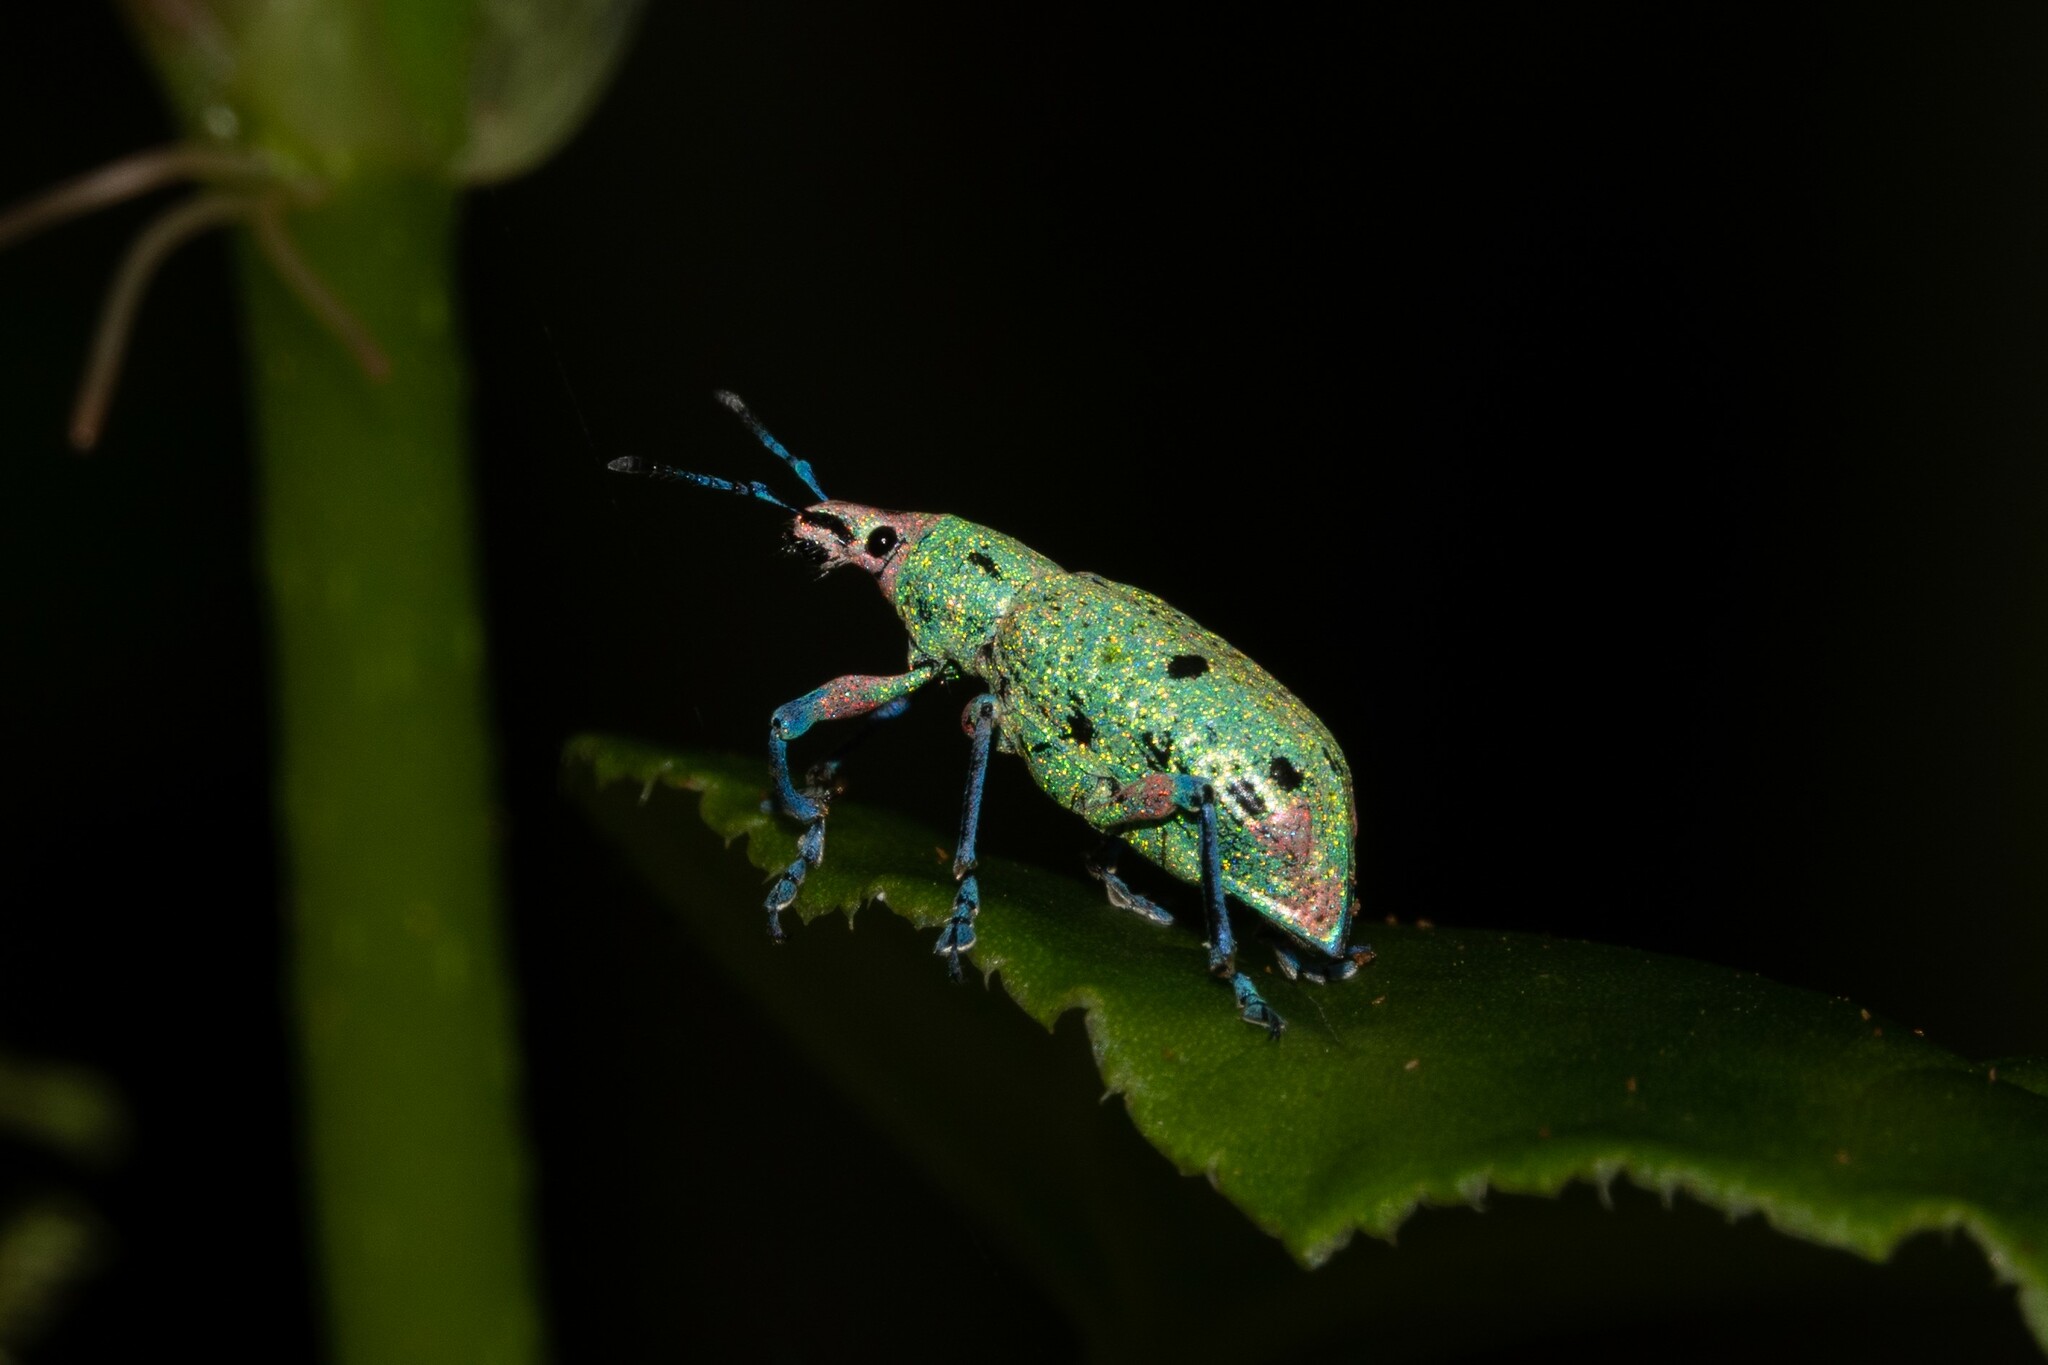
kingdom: Animalia
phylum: Arthropoda
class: Insecta
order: Coleoptera
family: Curculionidae
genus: Compsus
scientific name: Compsus benoisti
